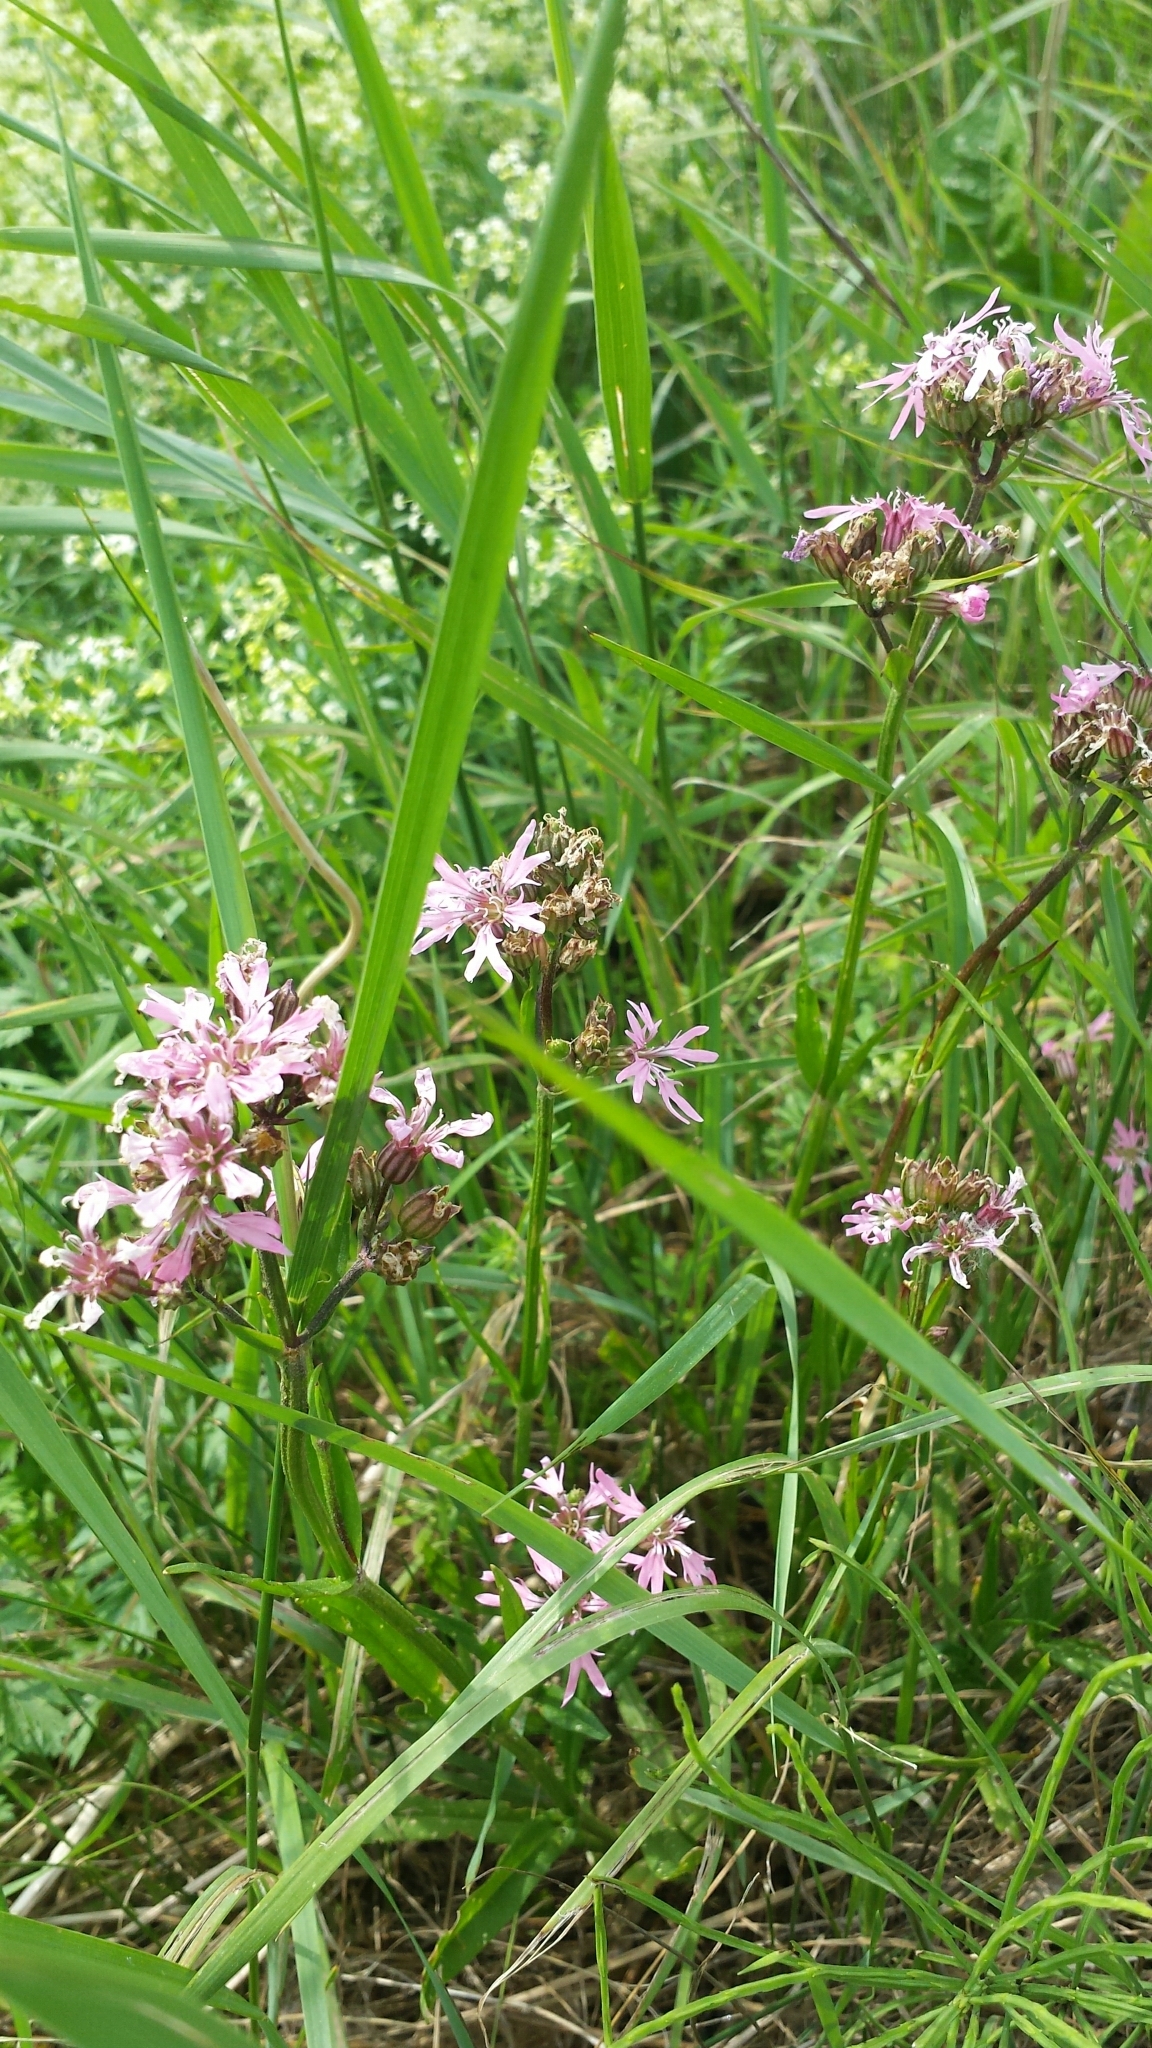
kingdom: Plantae
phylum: Tracheophyta
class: Magnoliopsida
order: Caryophyllales
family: Caryophyllaceae
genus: Silene
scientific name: Silene flos-cuculi
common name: Ragged-robin
